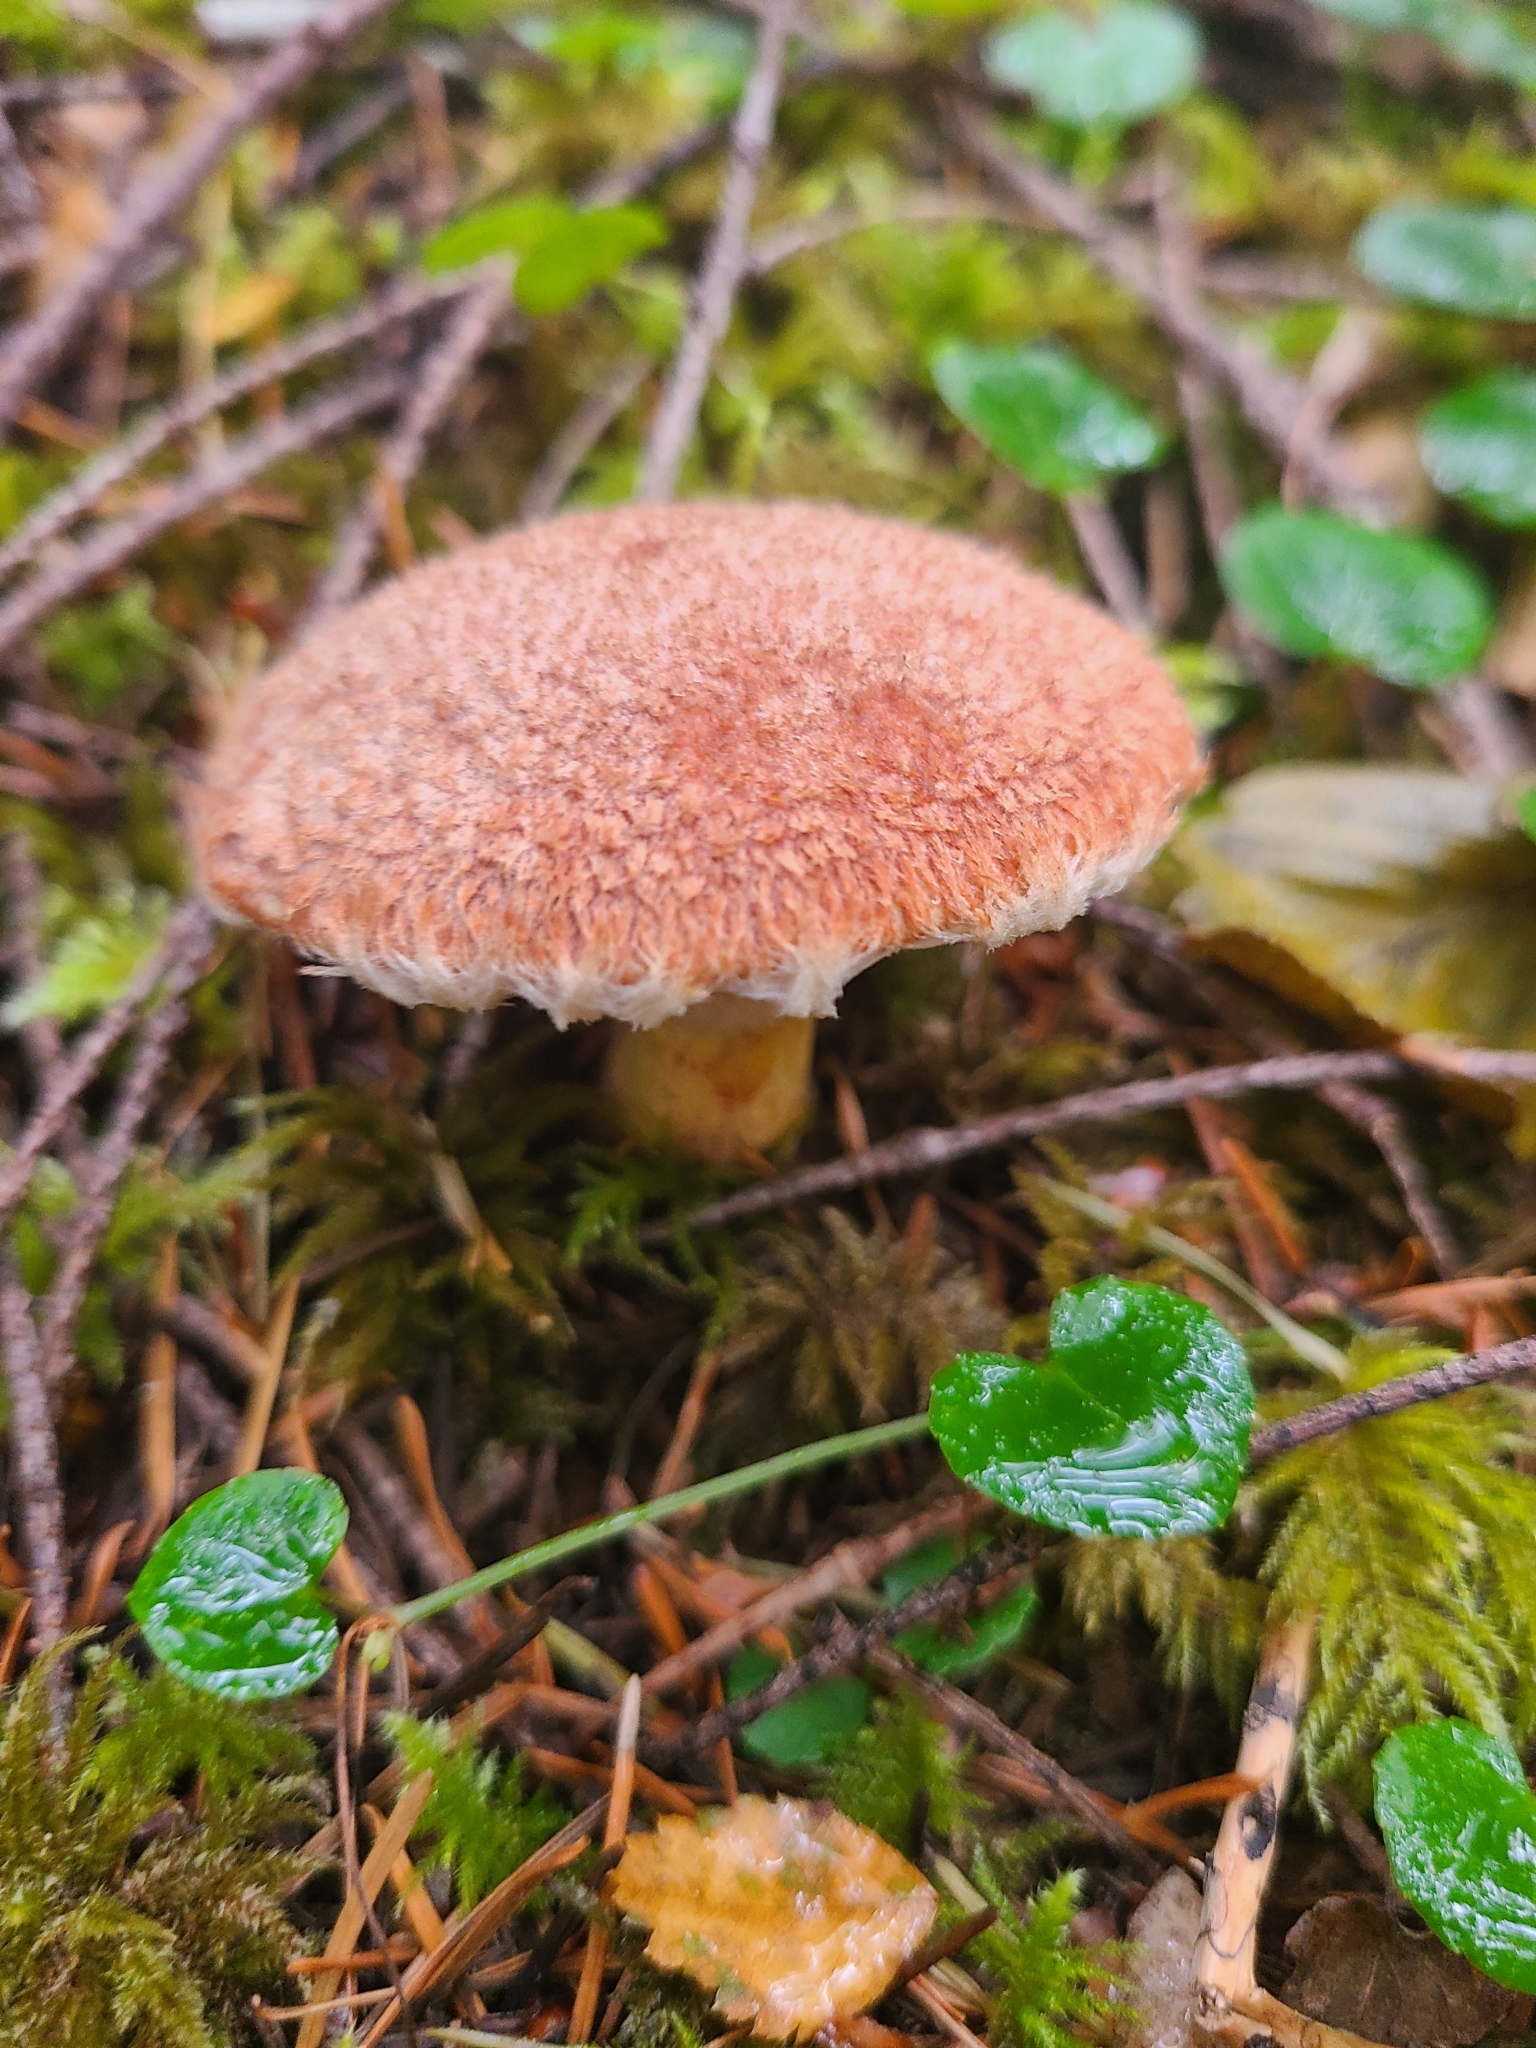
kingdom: Fungi
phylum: Basidiomycota
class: Agaricomycetes
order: Boletales
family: Suillaceae
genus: Suillus
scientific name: Suillus lakei
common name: Western painted suillus
